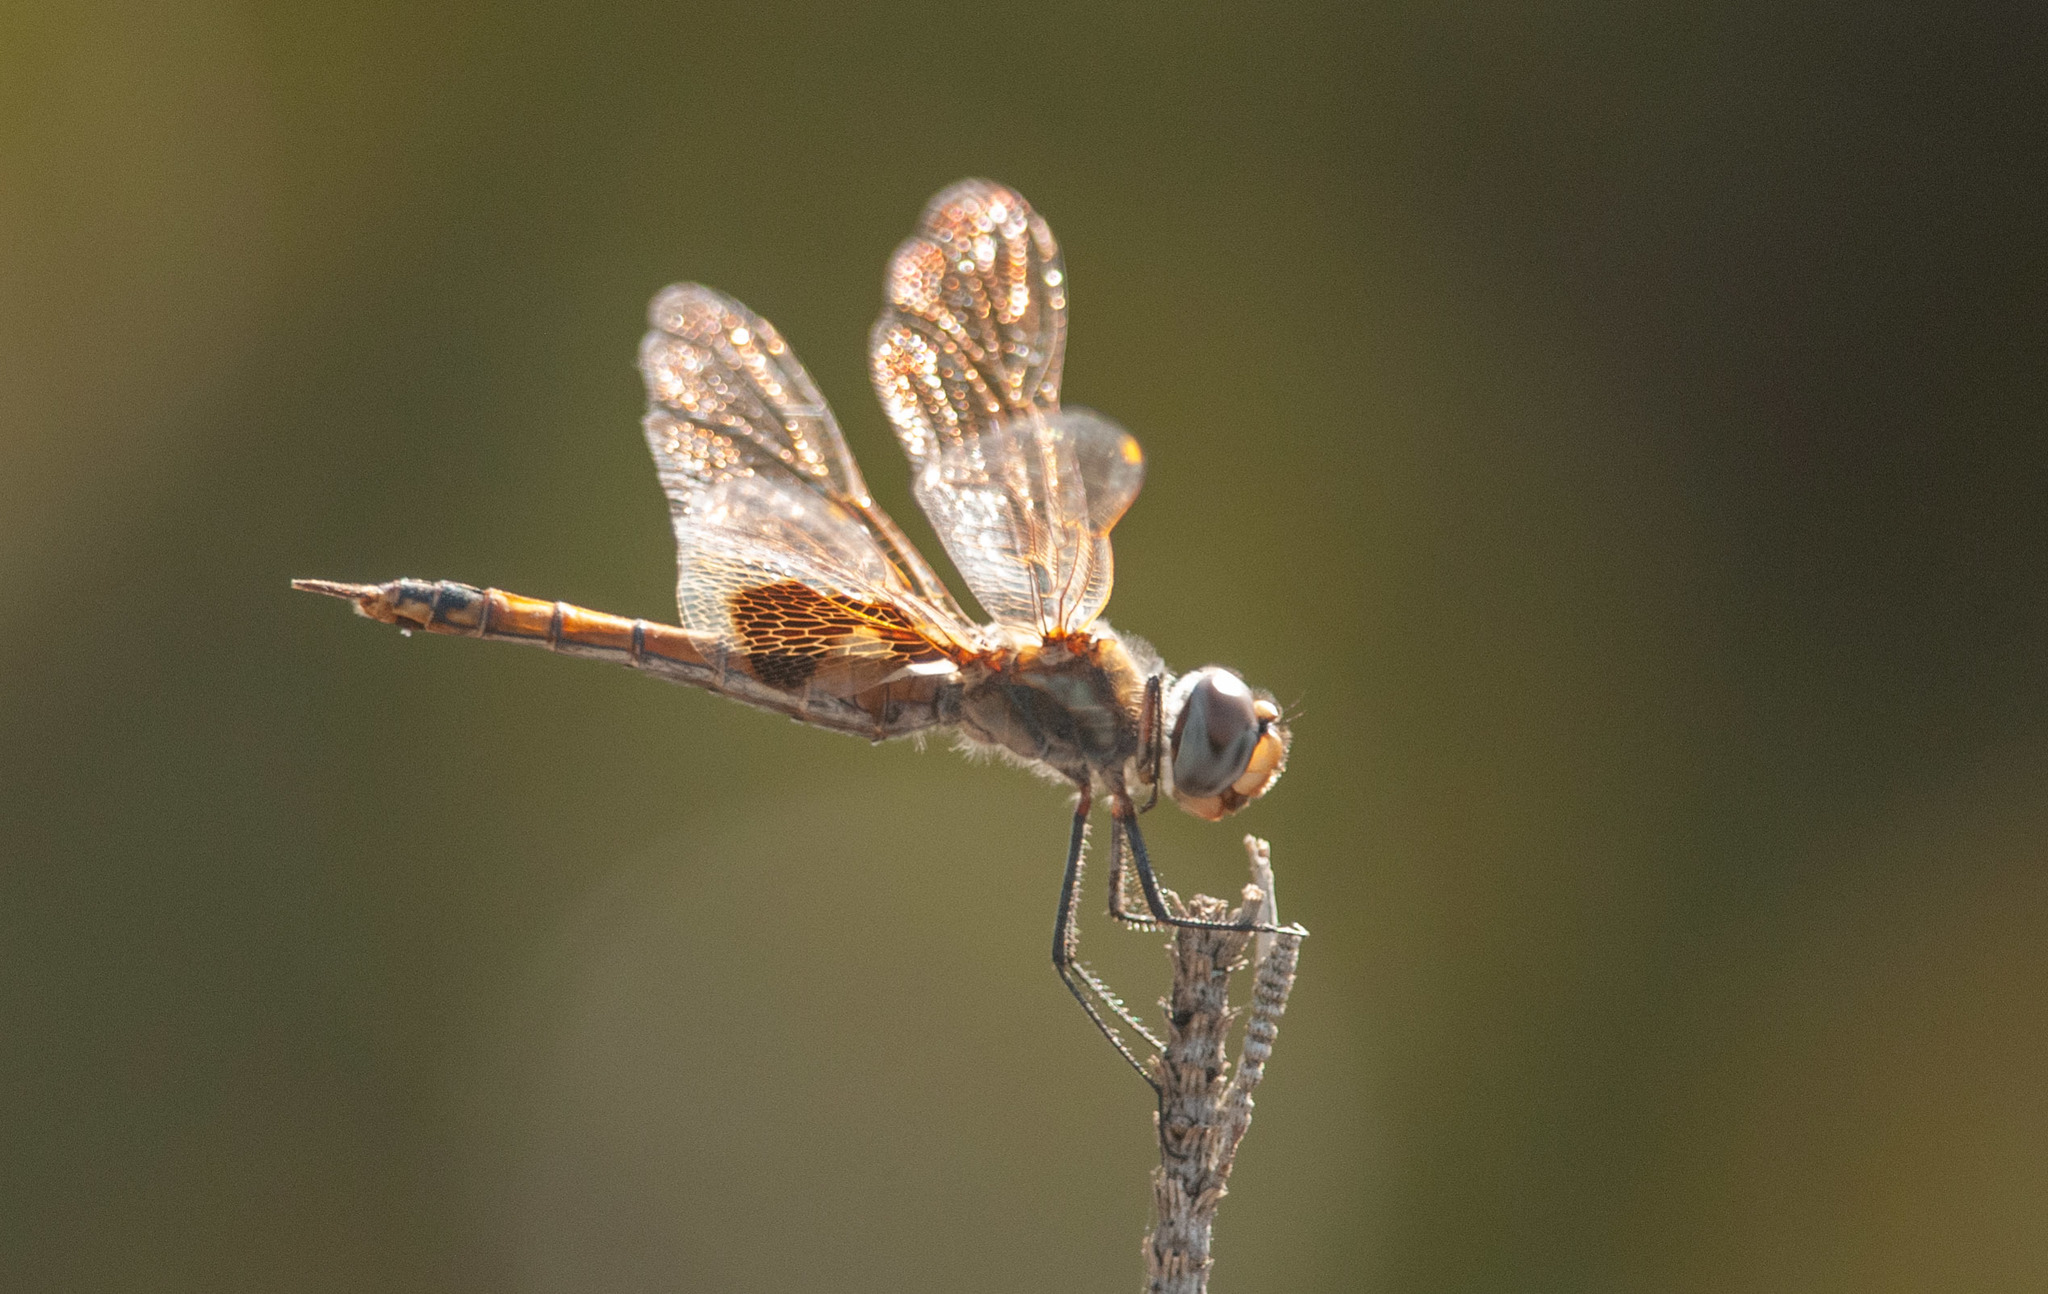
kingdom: Animalia
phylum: Arthropoda
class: Insecta
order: Odonata
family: Libellulidae
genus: Tramea
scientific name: Tramea loewii
